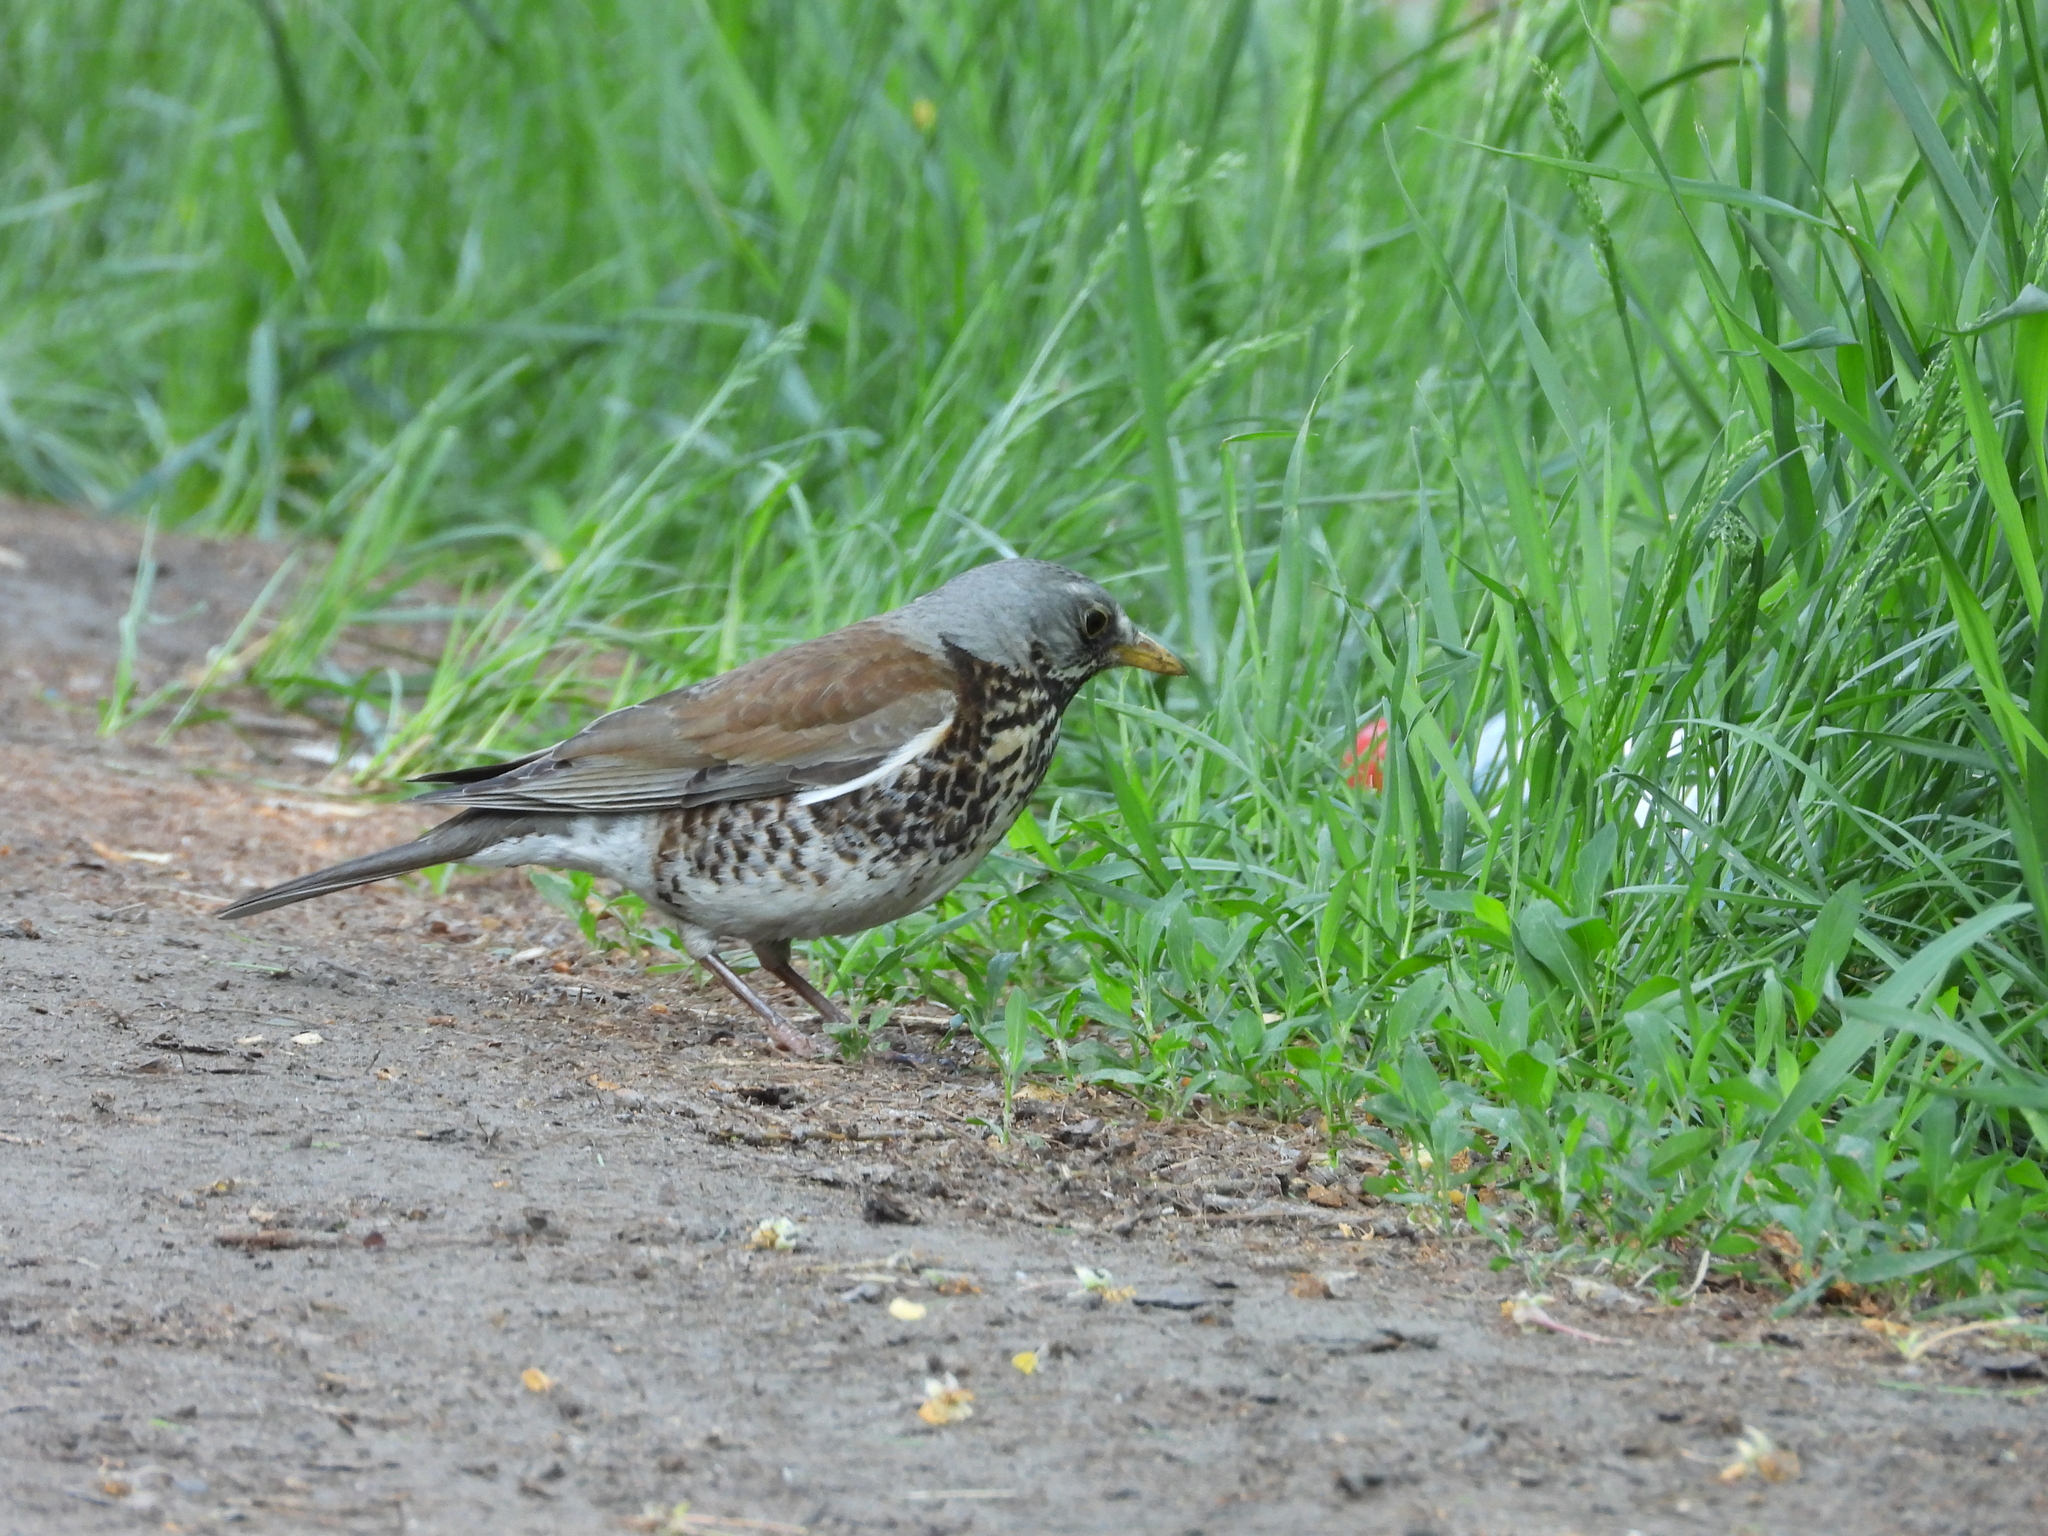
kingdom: Animalia
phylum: Chordata
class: Aves
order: Passeriformes
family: Turdidae
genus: Turdus
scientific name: Turdus pilaris
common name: Fieldfare
